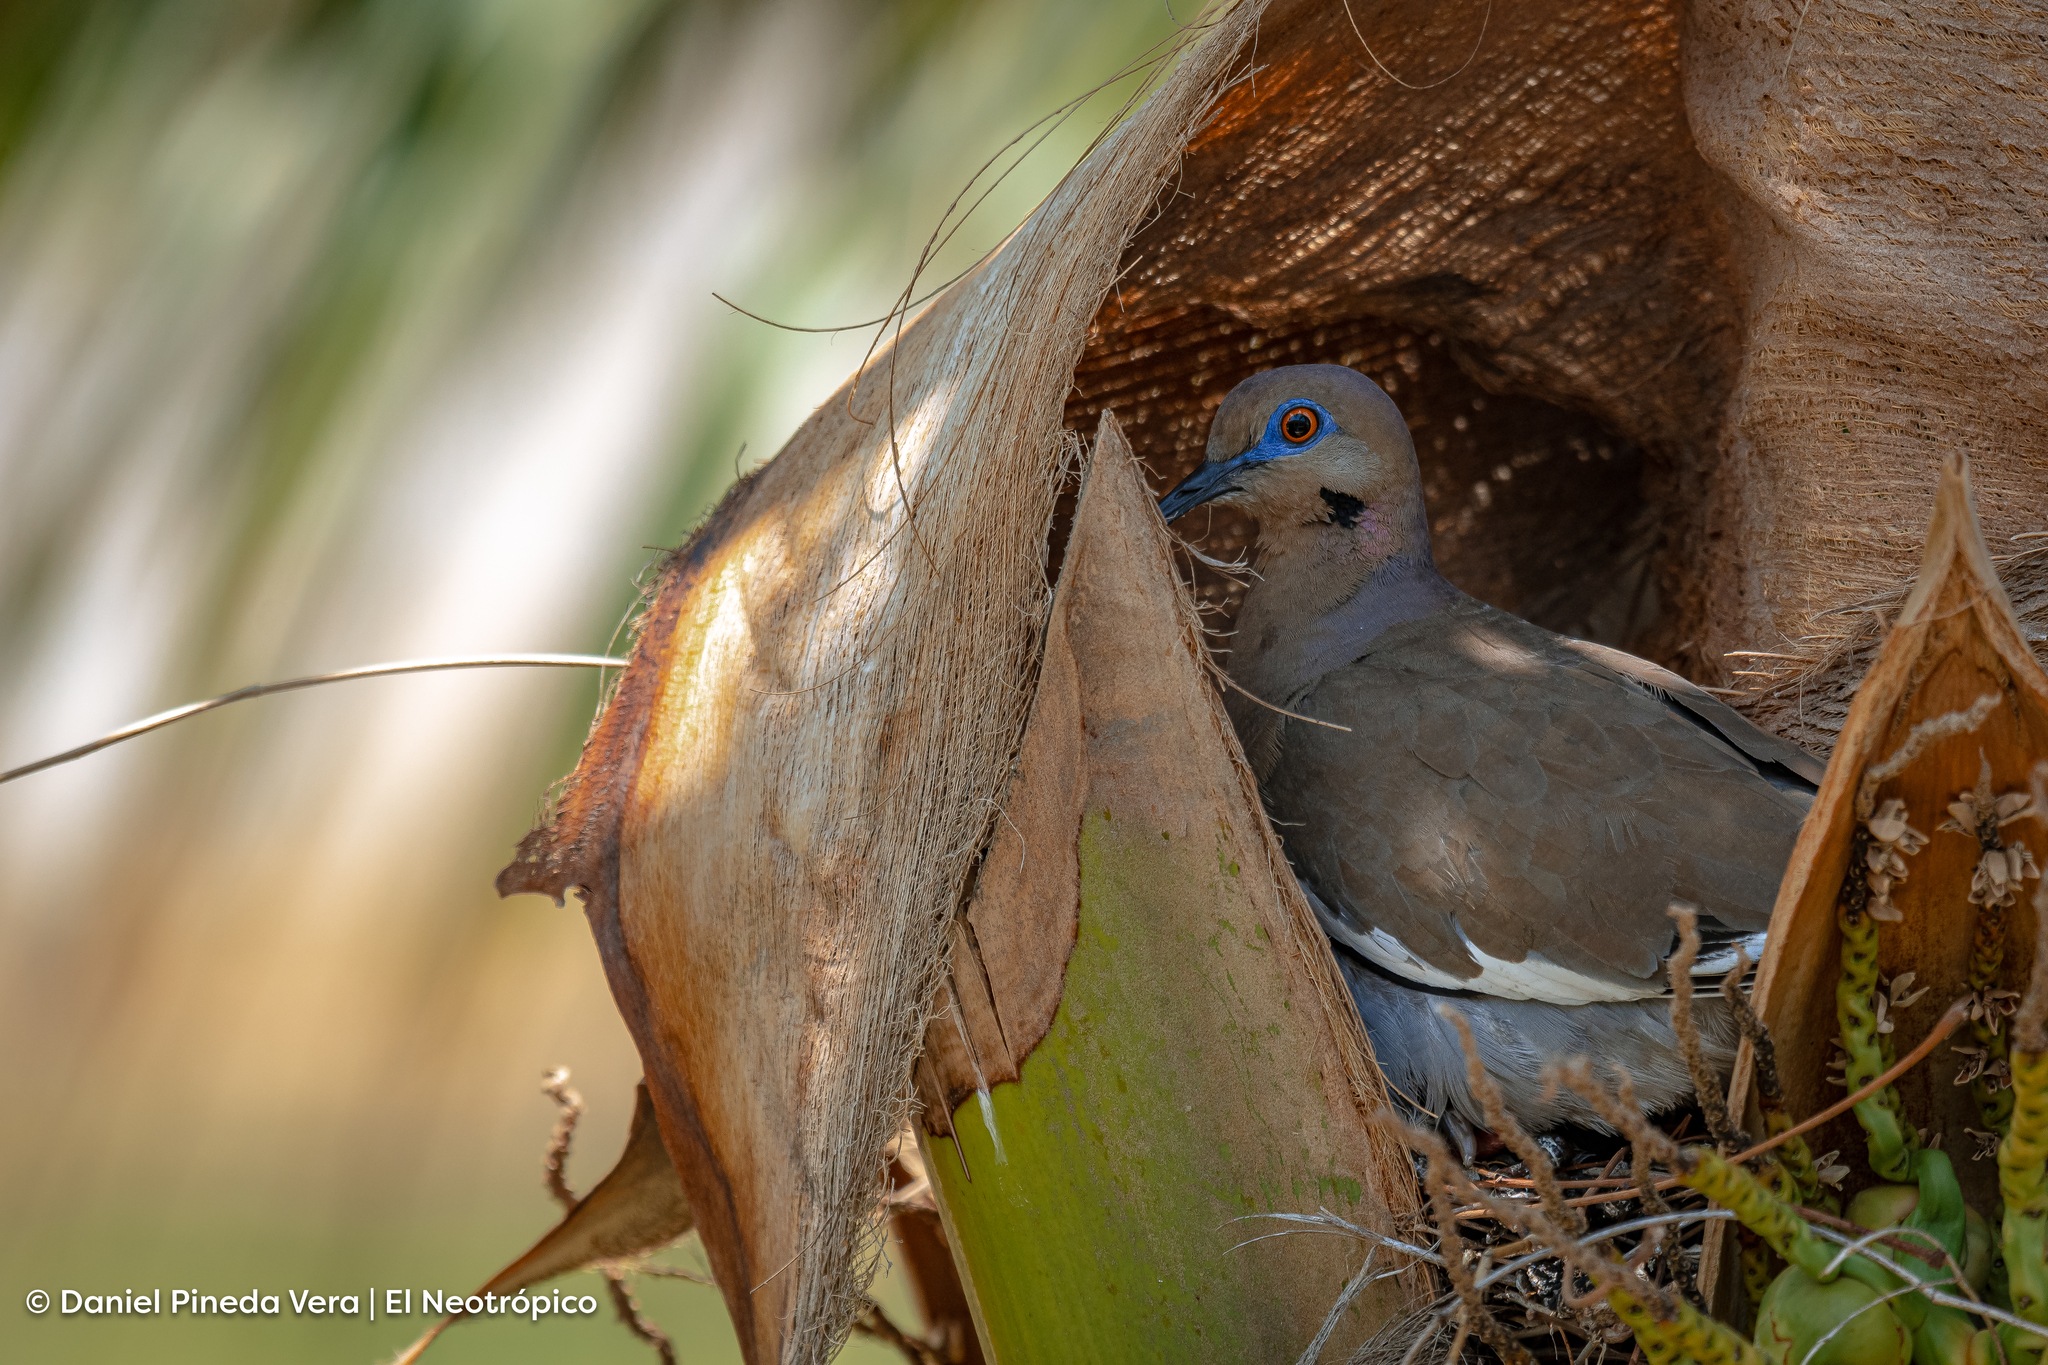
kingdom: Animalia
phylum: Chordata
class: Aves
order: Columbiformes
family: Columbidae
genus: Zenaida
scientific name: Zenaida asiatica
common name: White-winged dove
